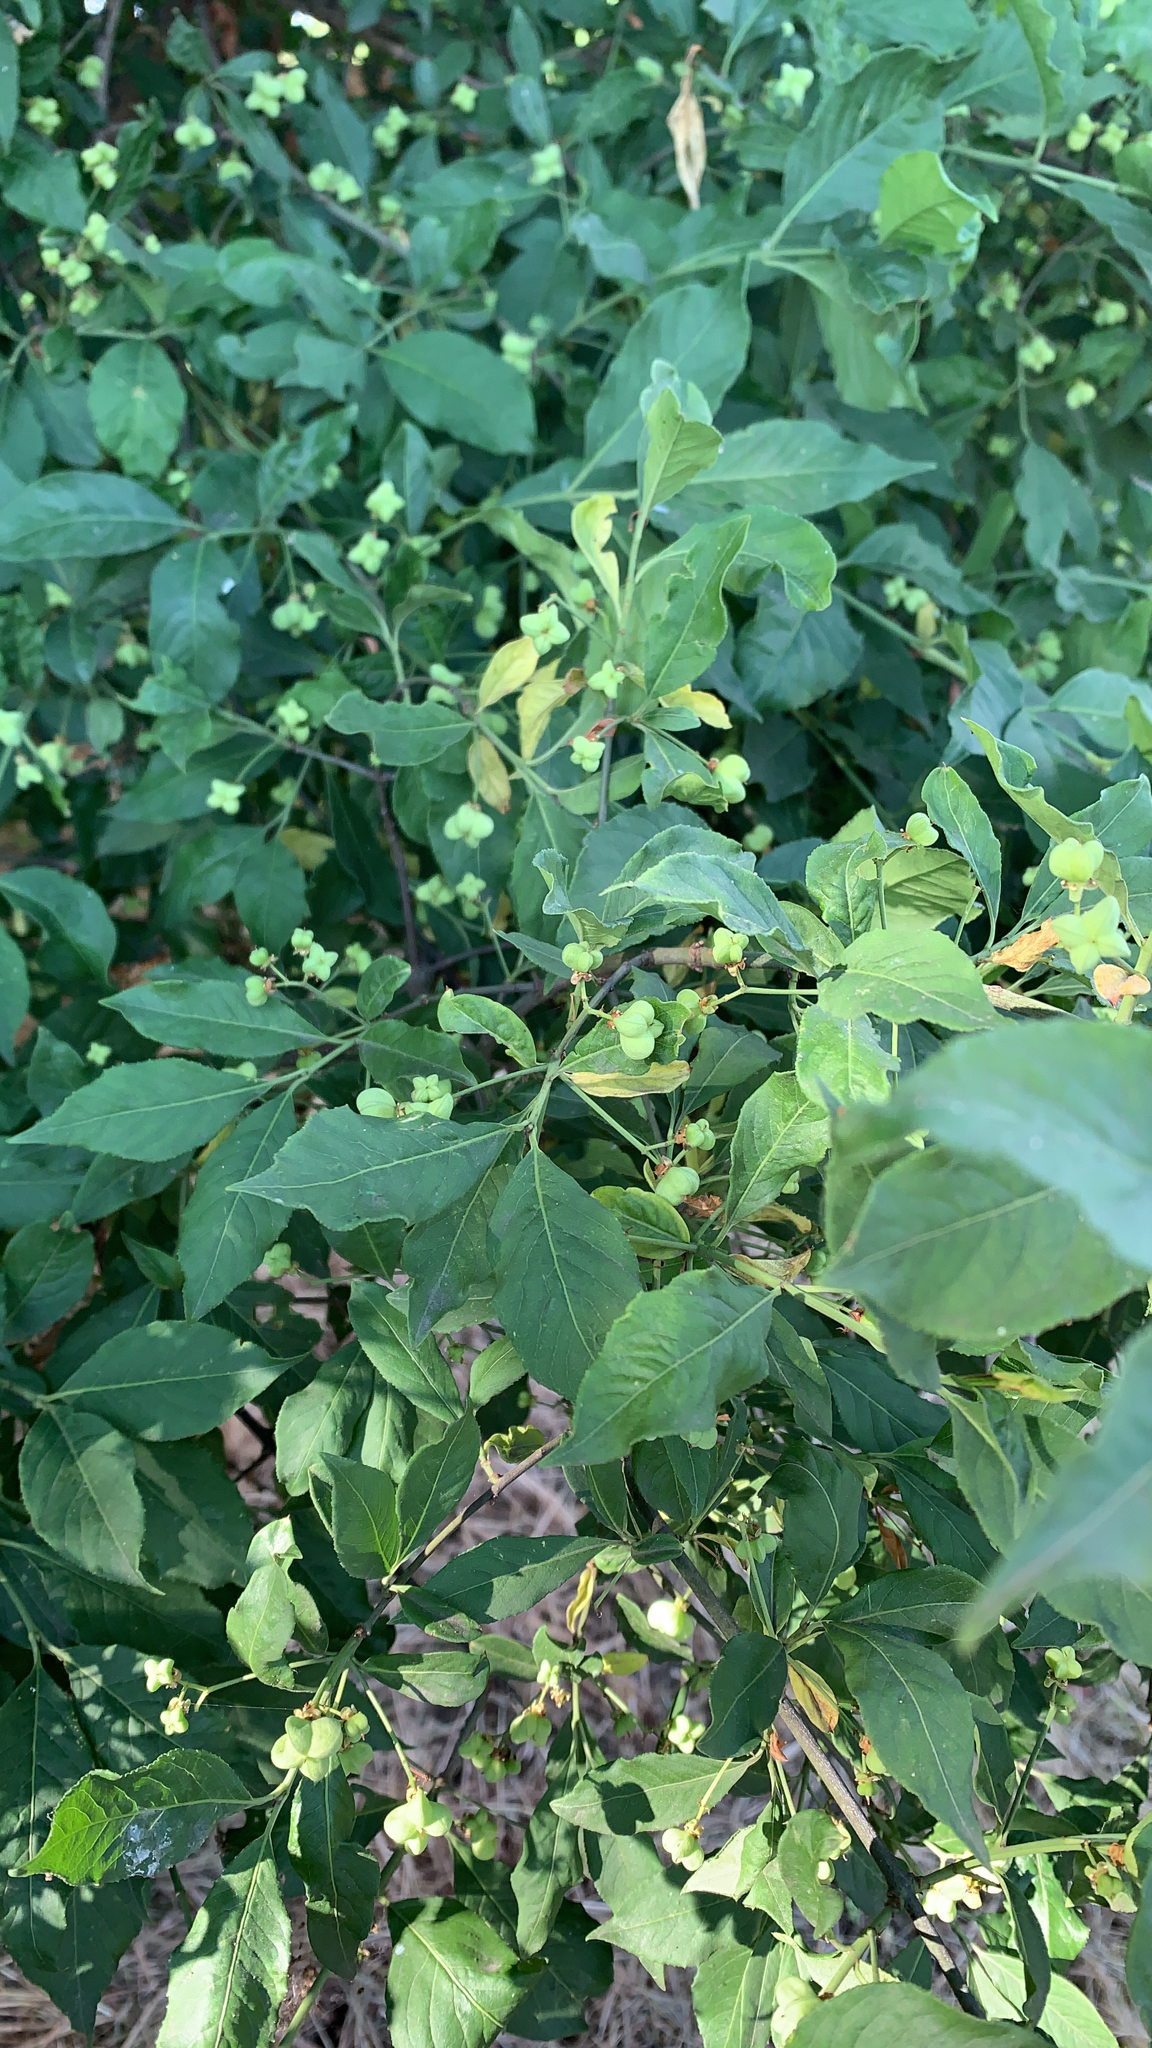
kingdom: Plantae
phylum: Tracheophyta
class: Magnoliopsida
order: Celastrales
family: Celastraceae
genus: Euonymus
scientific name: Euonymus europaeus
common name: Spindle
